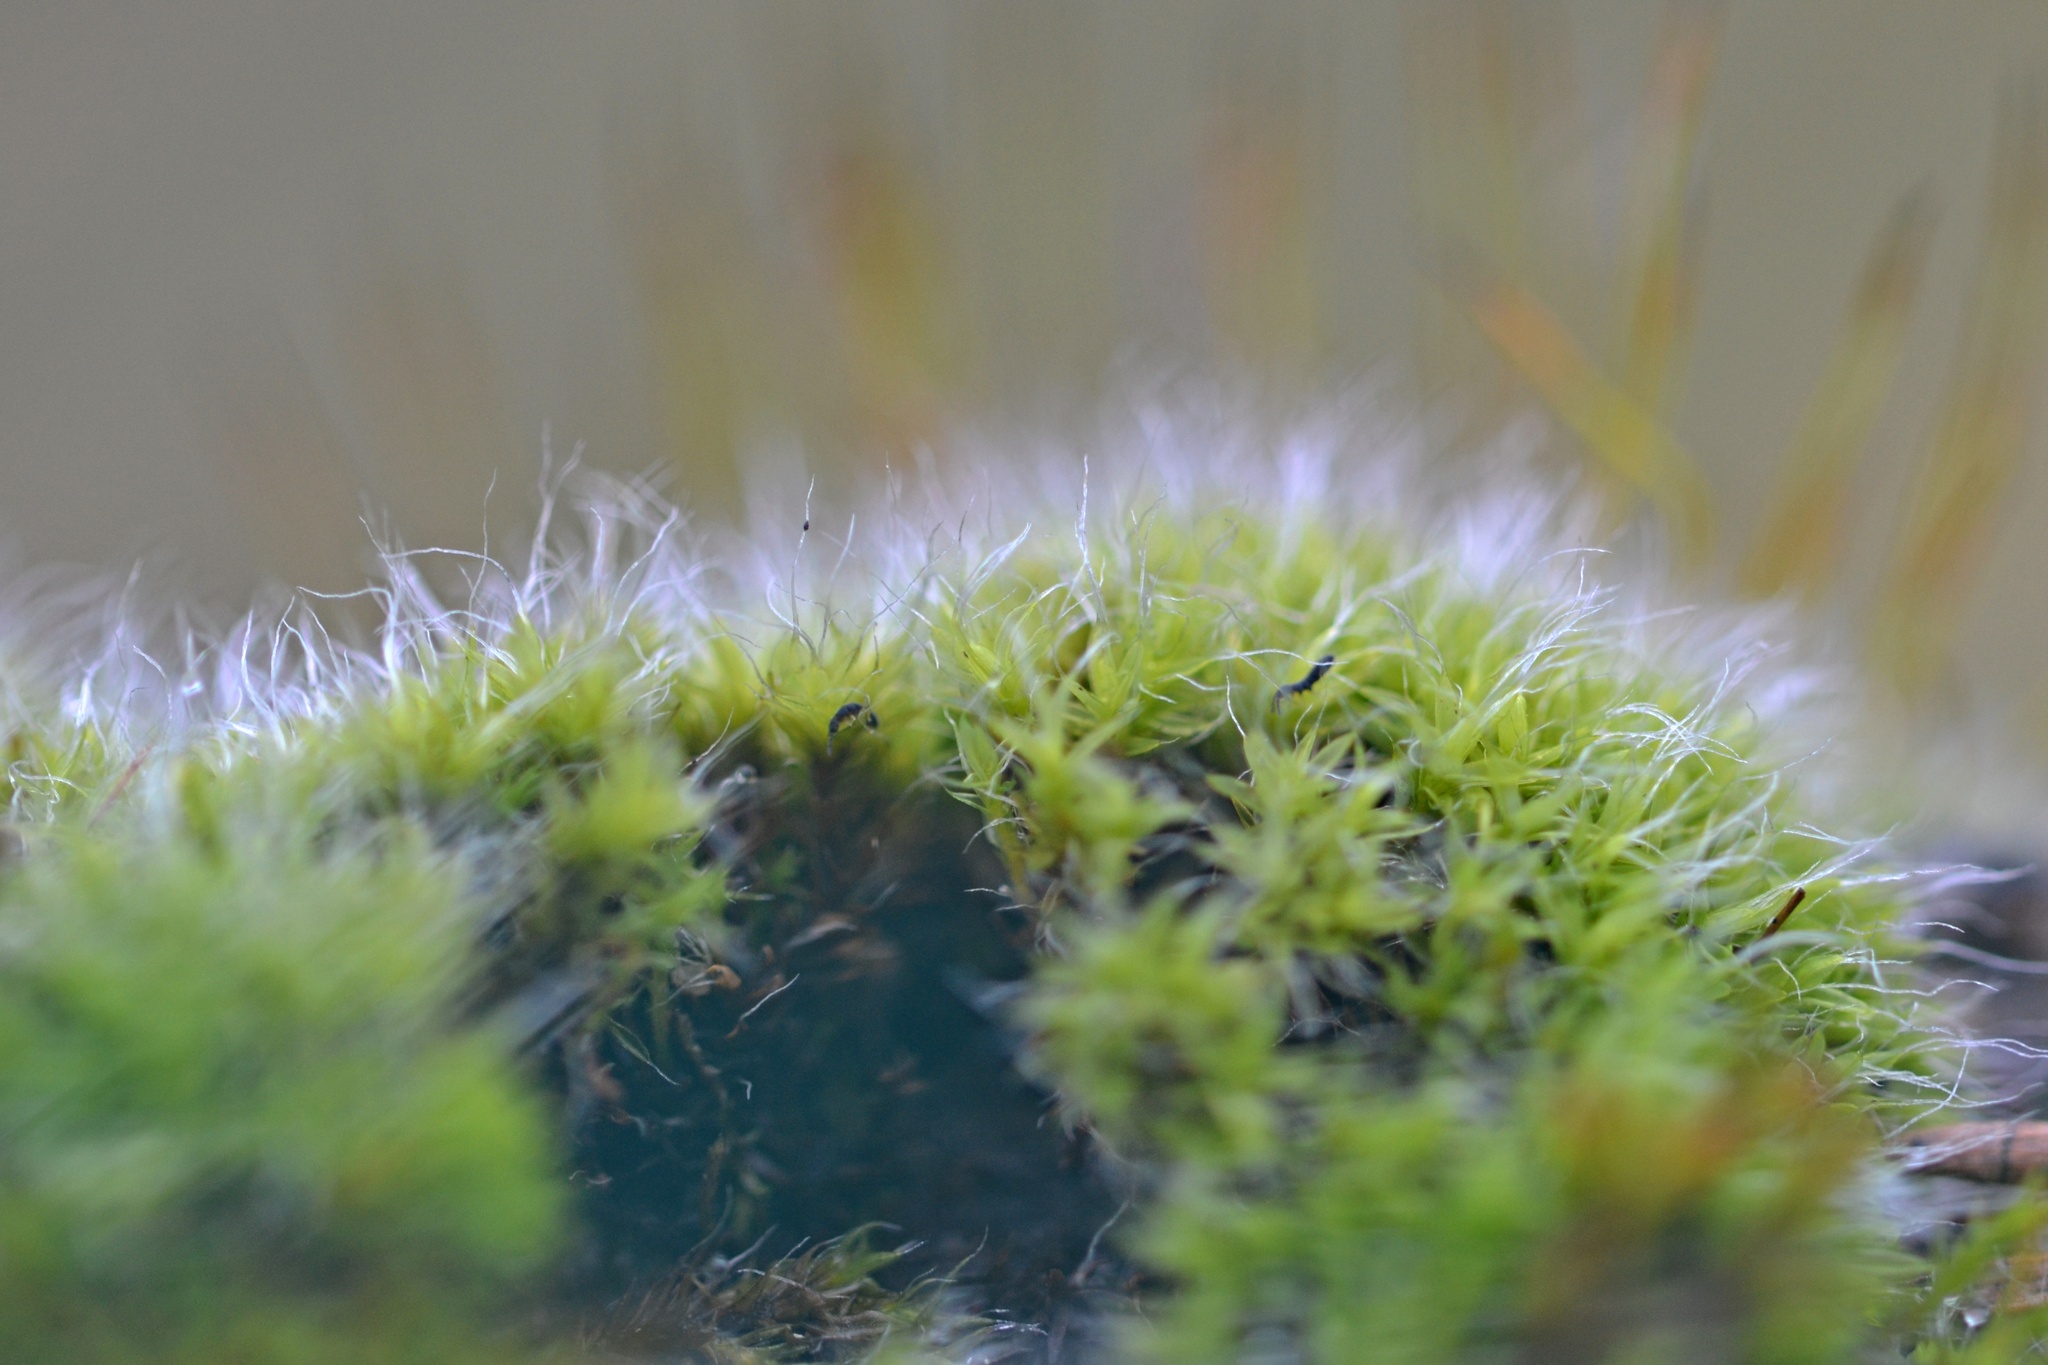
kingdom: Plantae
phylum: Bryophyta
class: Bryopsida
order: Pottiales
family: Pottiaceae
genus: Tortula
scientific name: Tortula muralis
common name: Wall screw-moss
